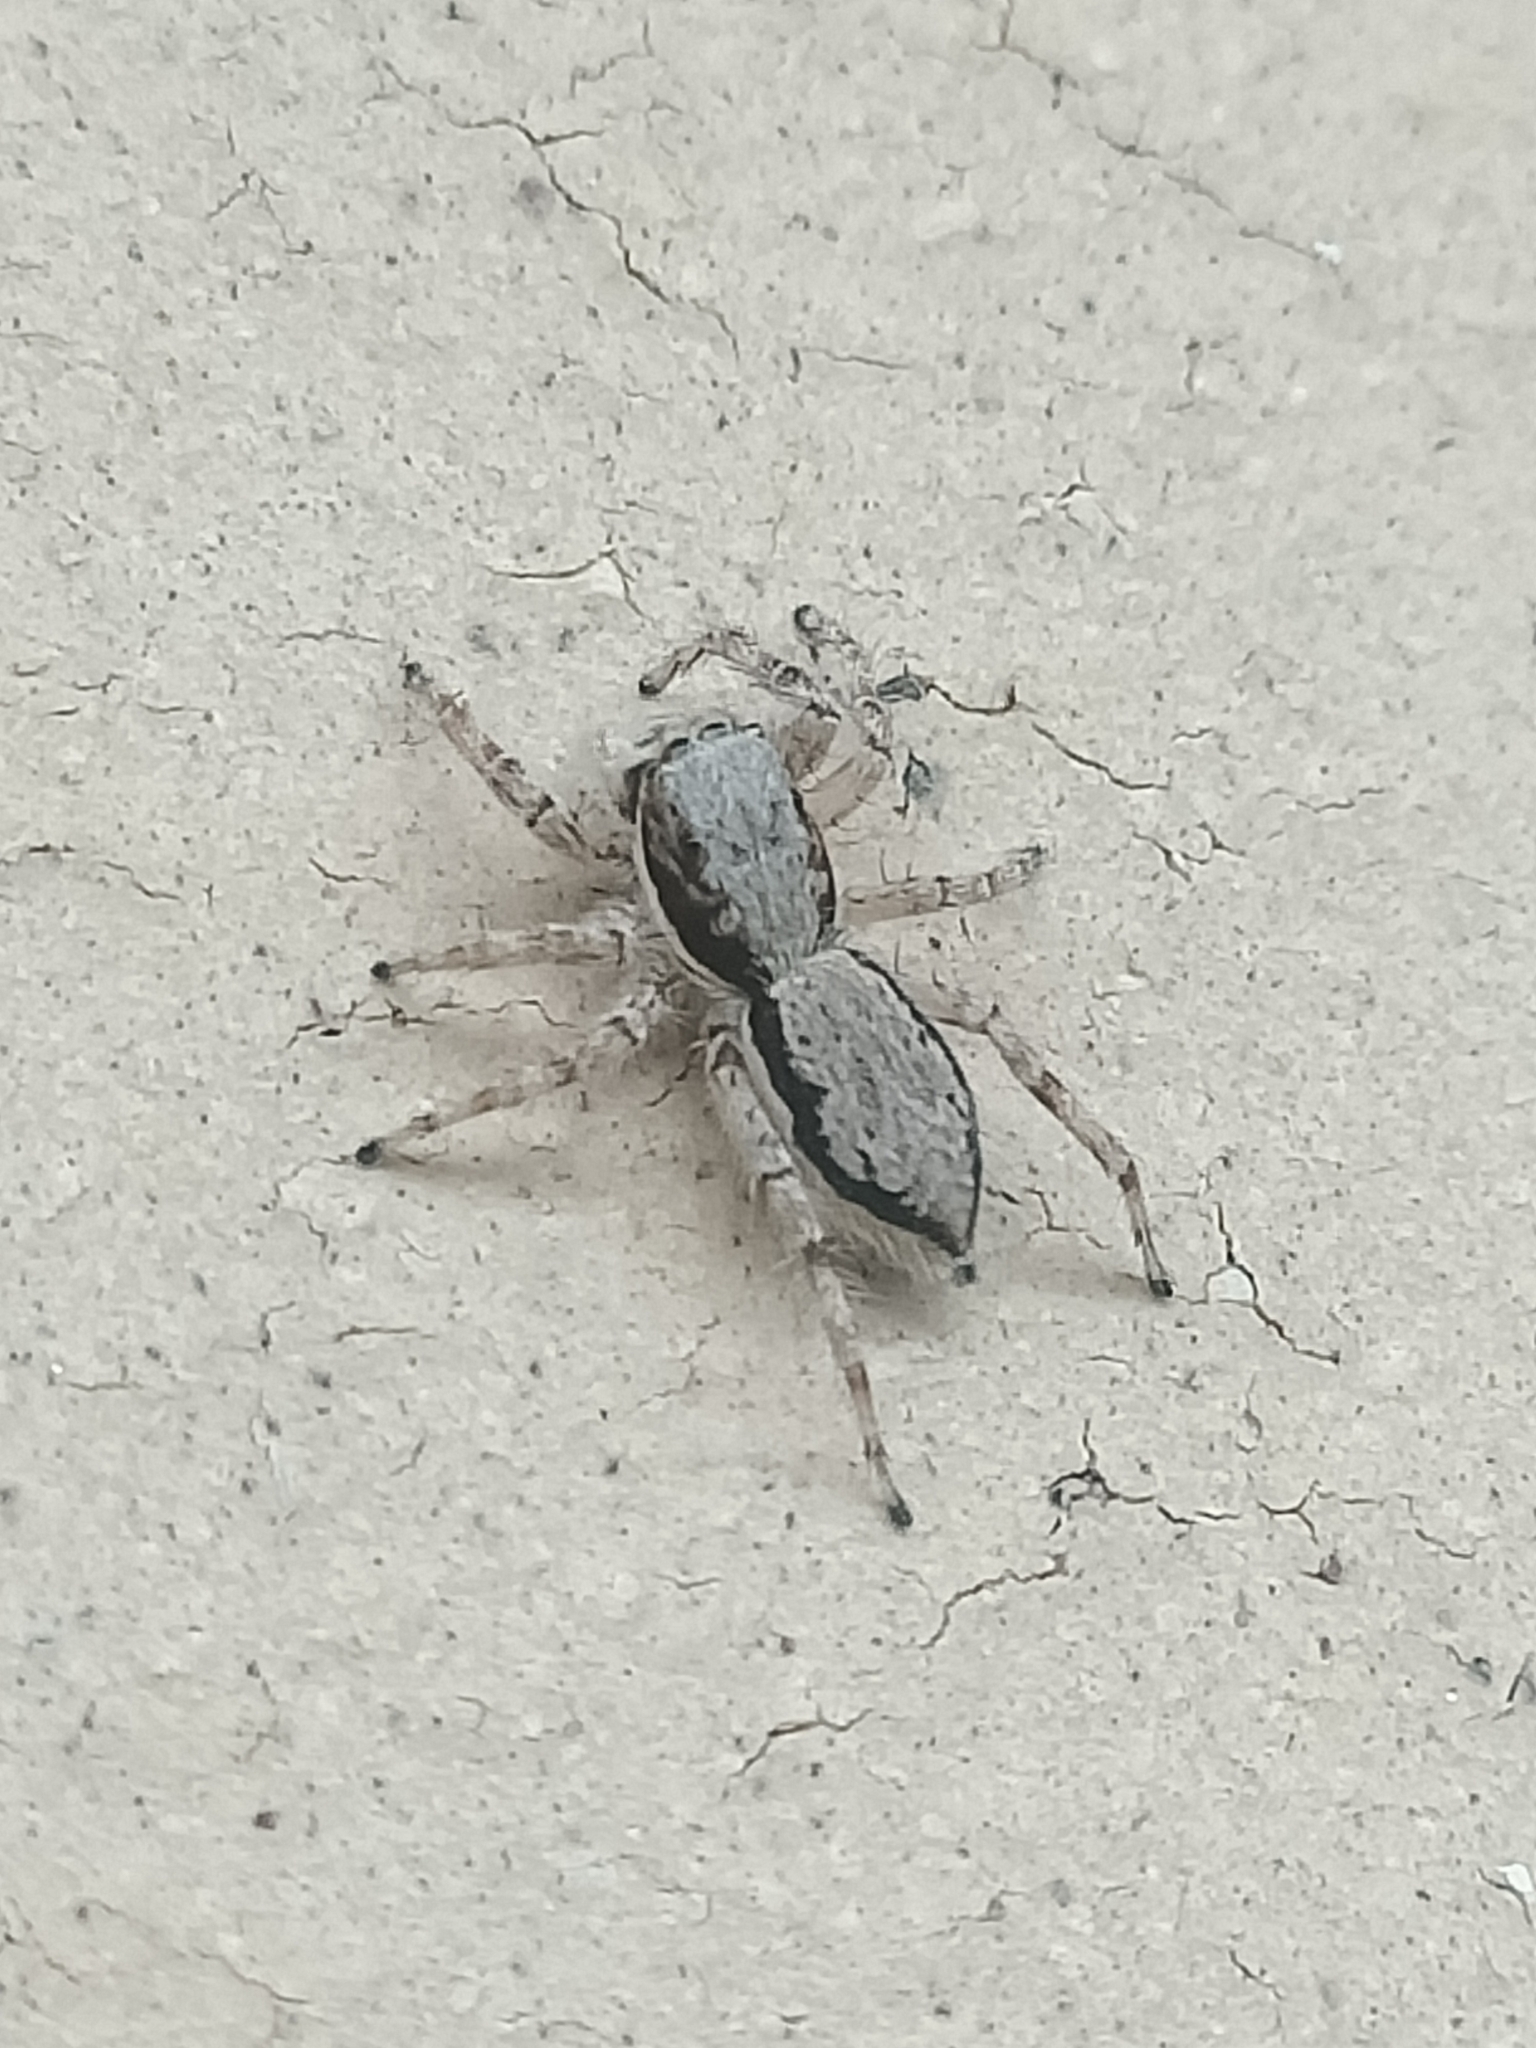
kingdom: Animalia
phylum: Arthropoda
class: Arachnida
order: Araneae
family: Salticidae
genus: Menemerus
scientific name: Menemerus bivittatus
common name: Gray wall jumper
